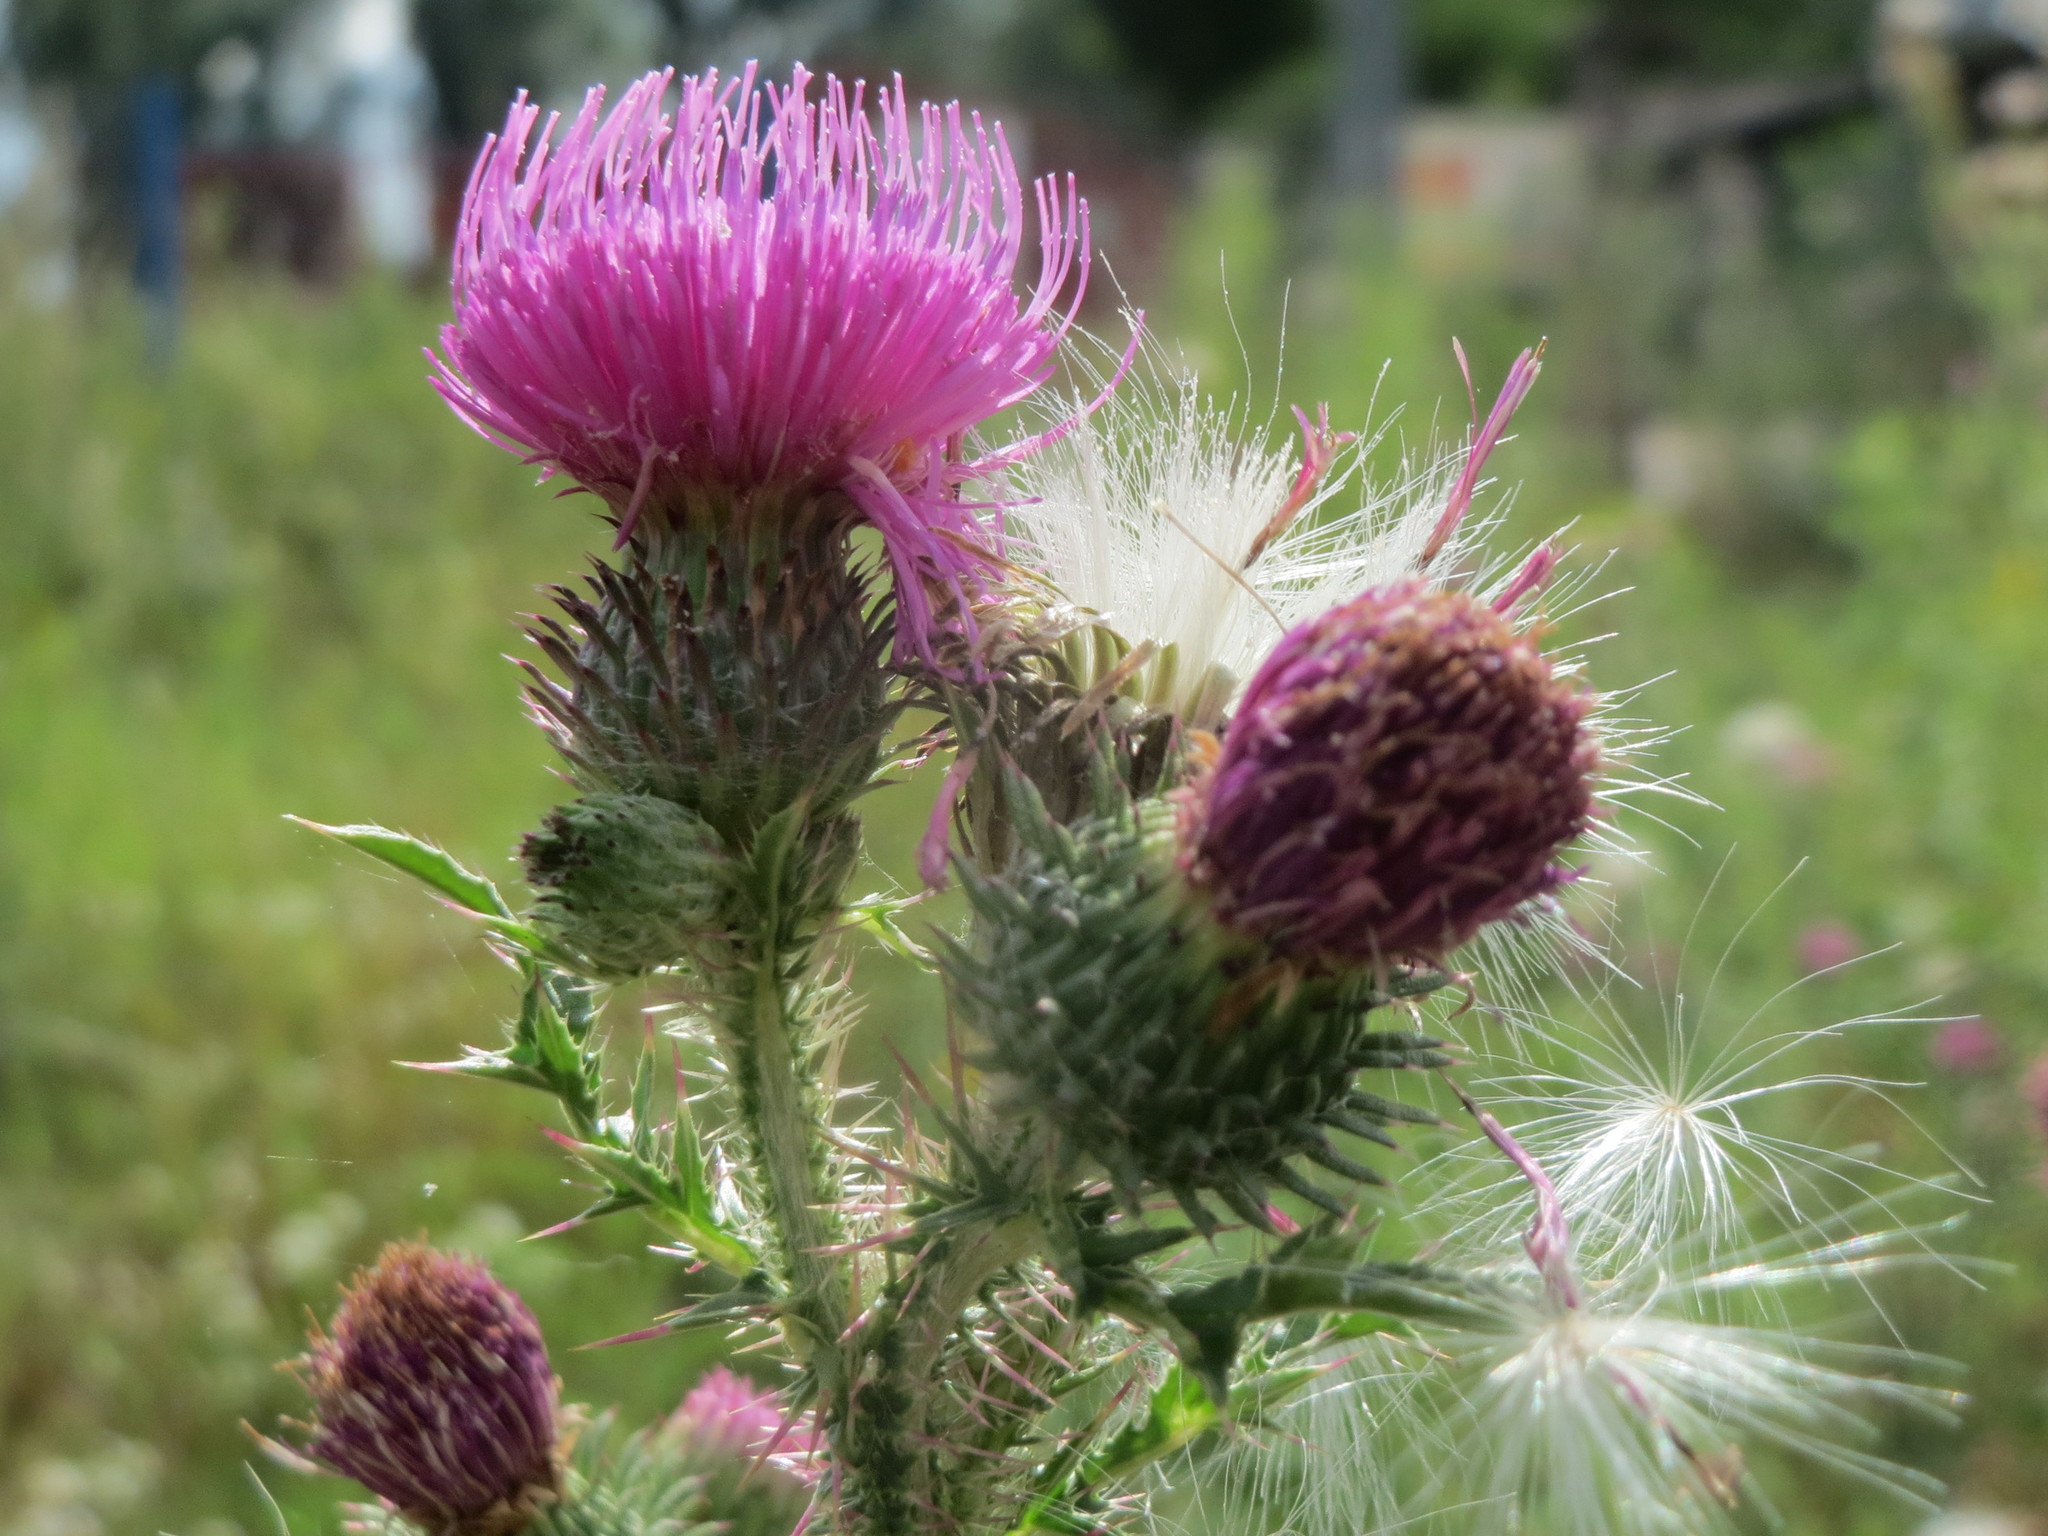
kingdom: Plantae
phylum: Tracheophyta
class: Magnoliopsida
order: Asterales
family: Asteraceae
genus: Carduus
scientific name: Carduus acanthoides
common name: Plumeless thistle
